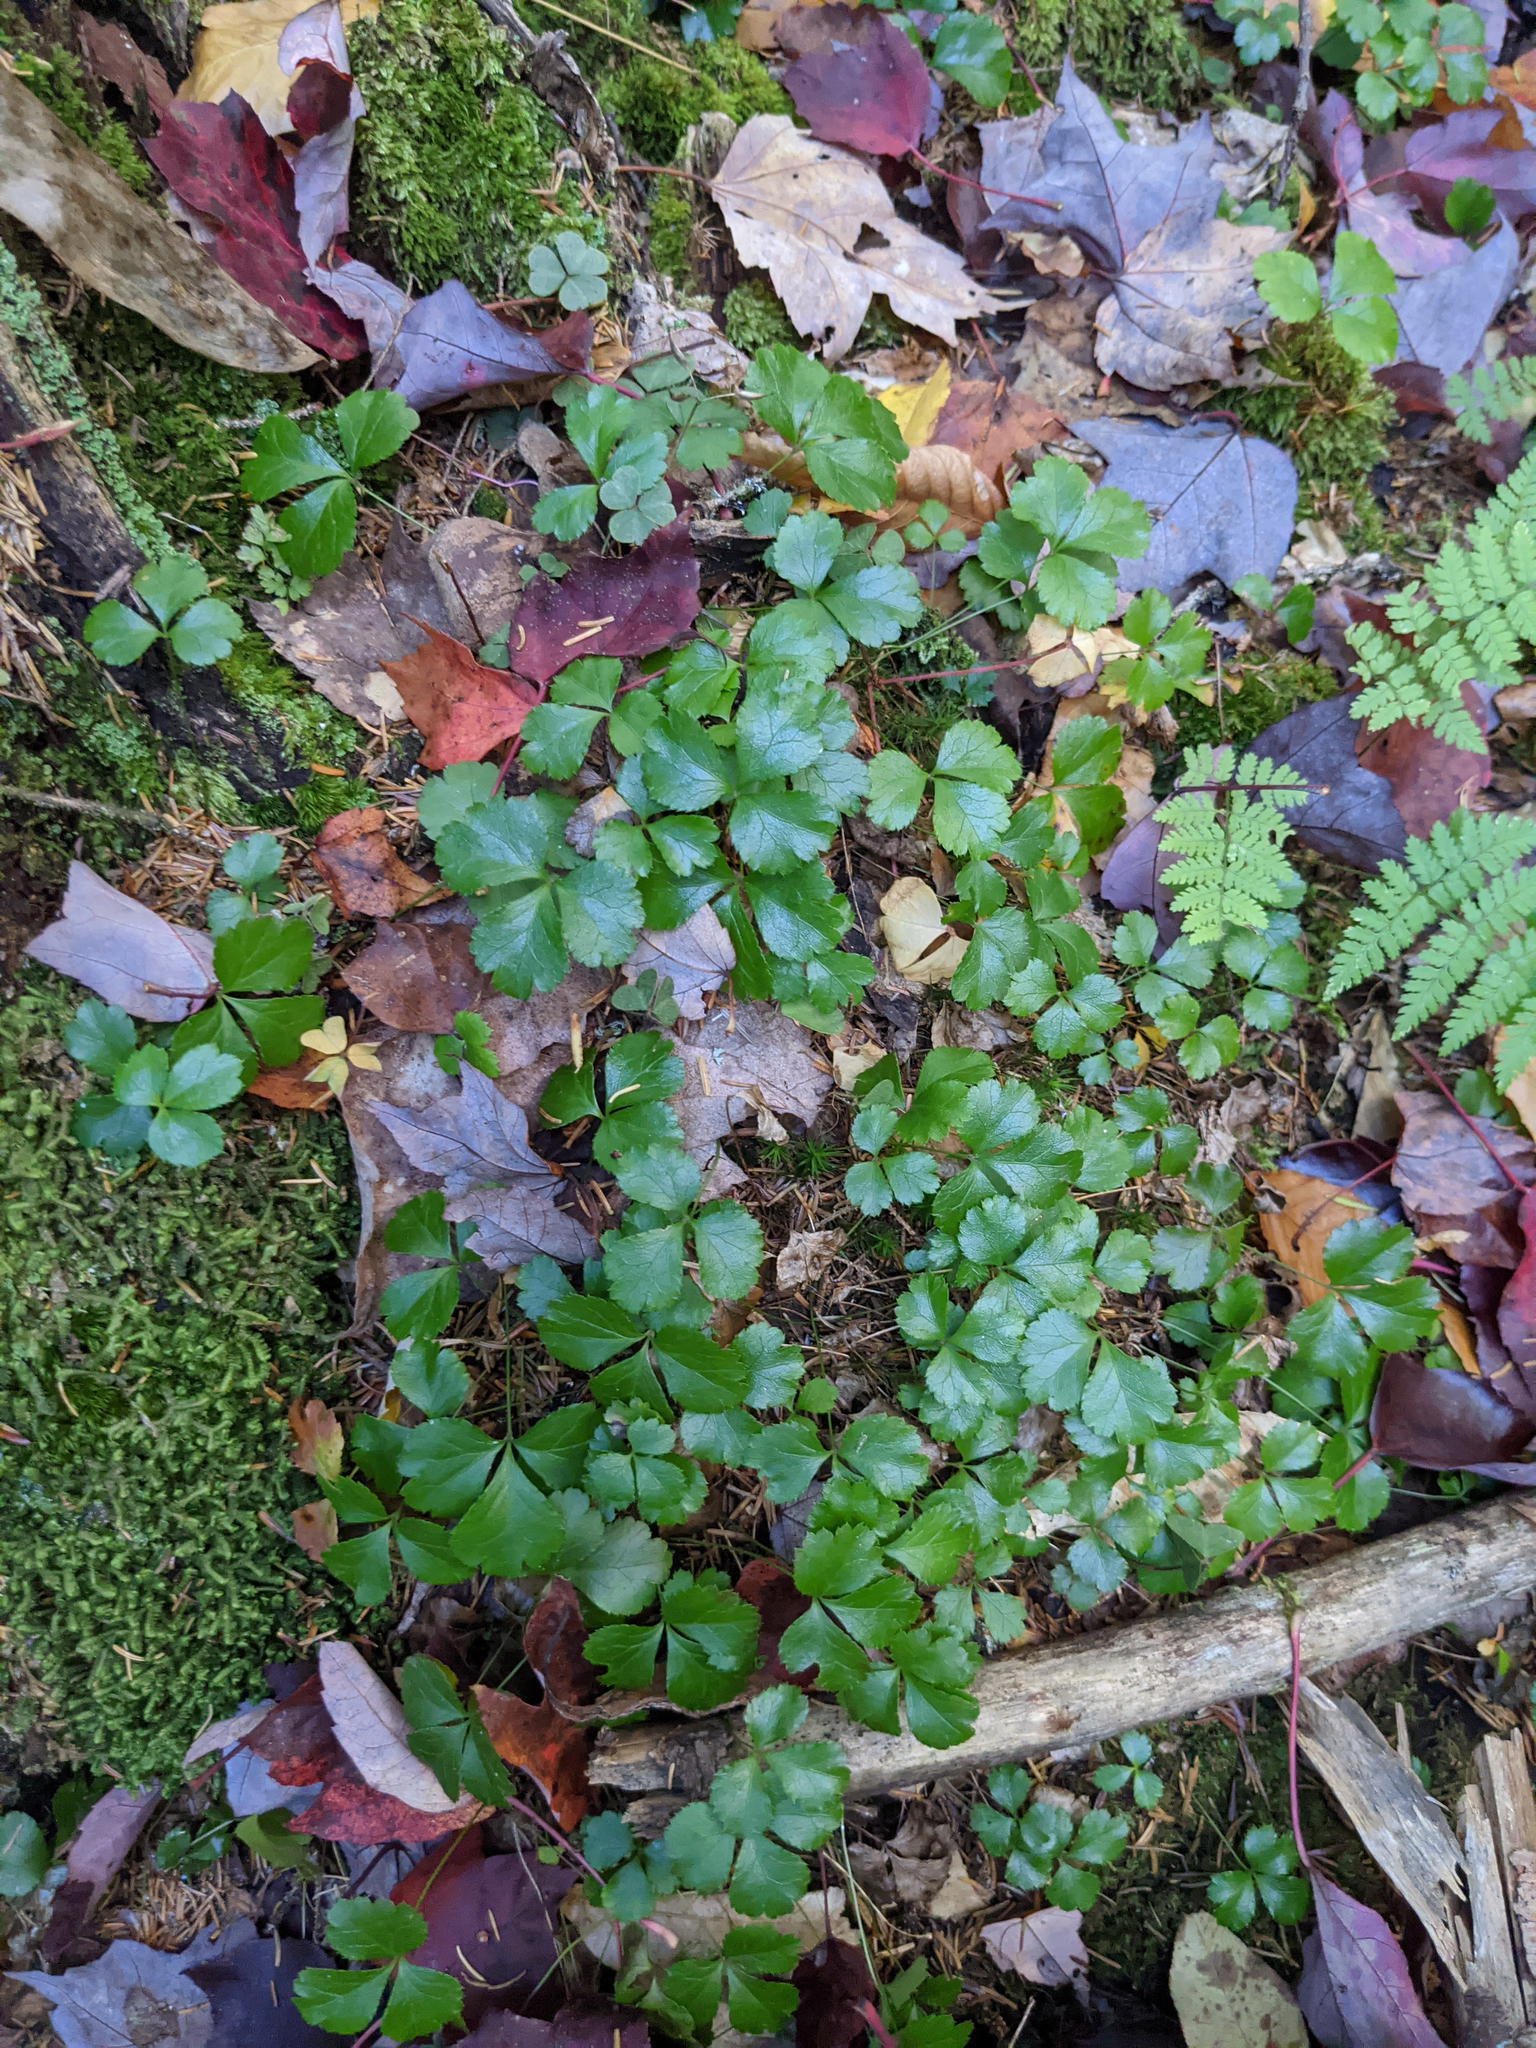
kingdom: Plantae
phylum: Tracheophyta
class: Magnoliopsida
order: Ranunculales
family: Ranunculaceae
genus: Coptis
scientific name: Coptis trifolia
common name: Canker-root
